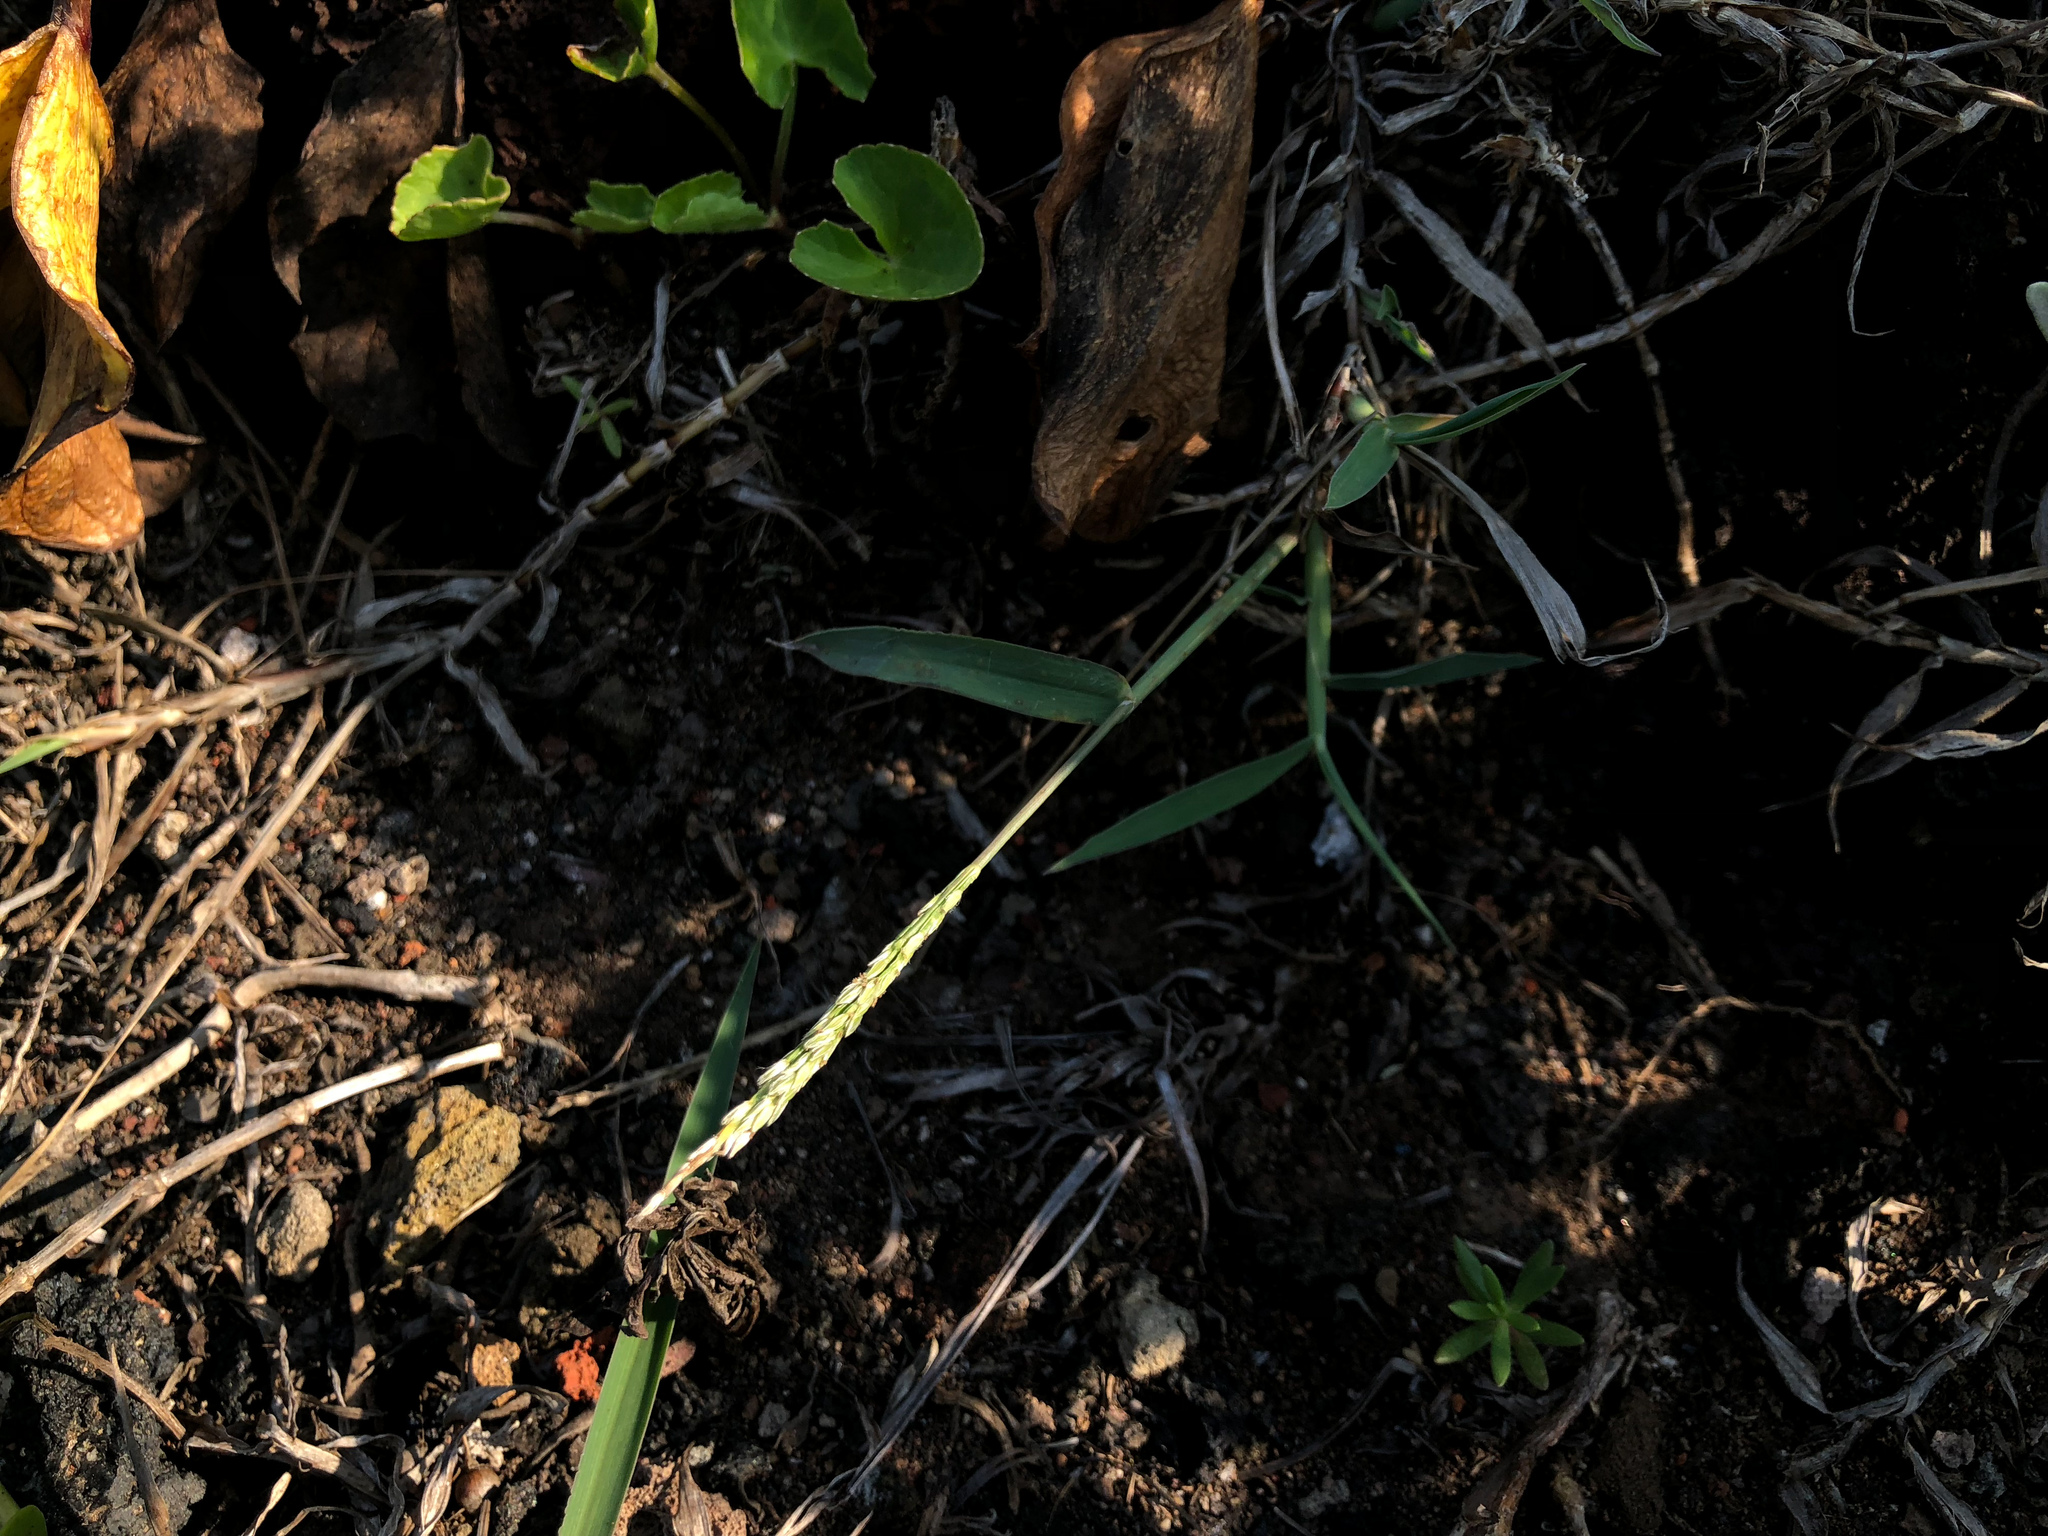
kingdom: Plantae
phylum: Tracheophyta
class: Liliopsida
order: Poales
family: Poaceae
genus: Digitaria
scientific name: Digitaria ciliaris
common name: Tropical finger-grass
